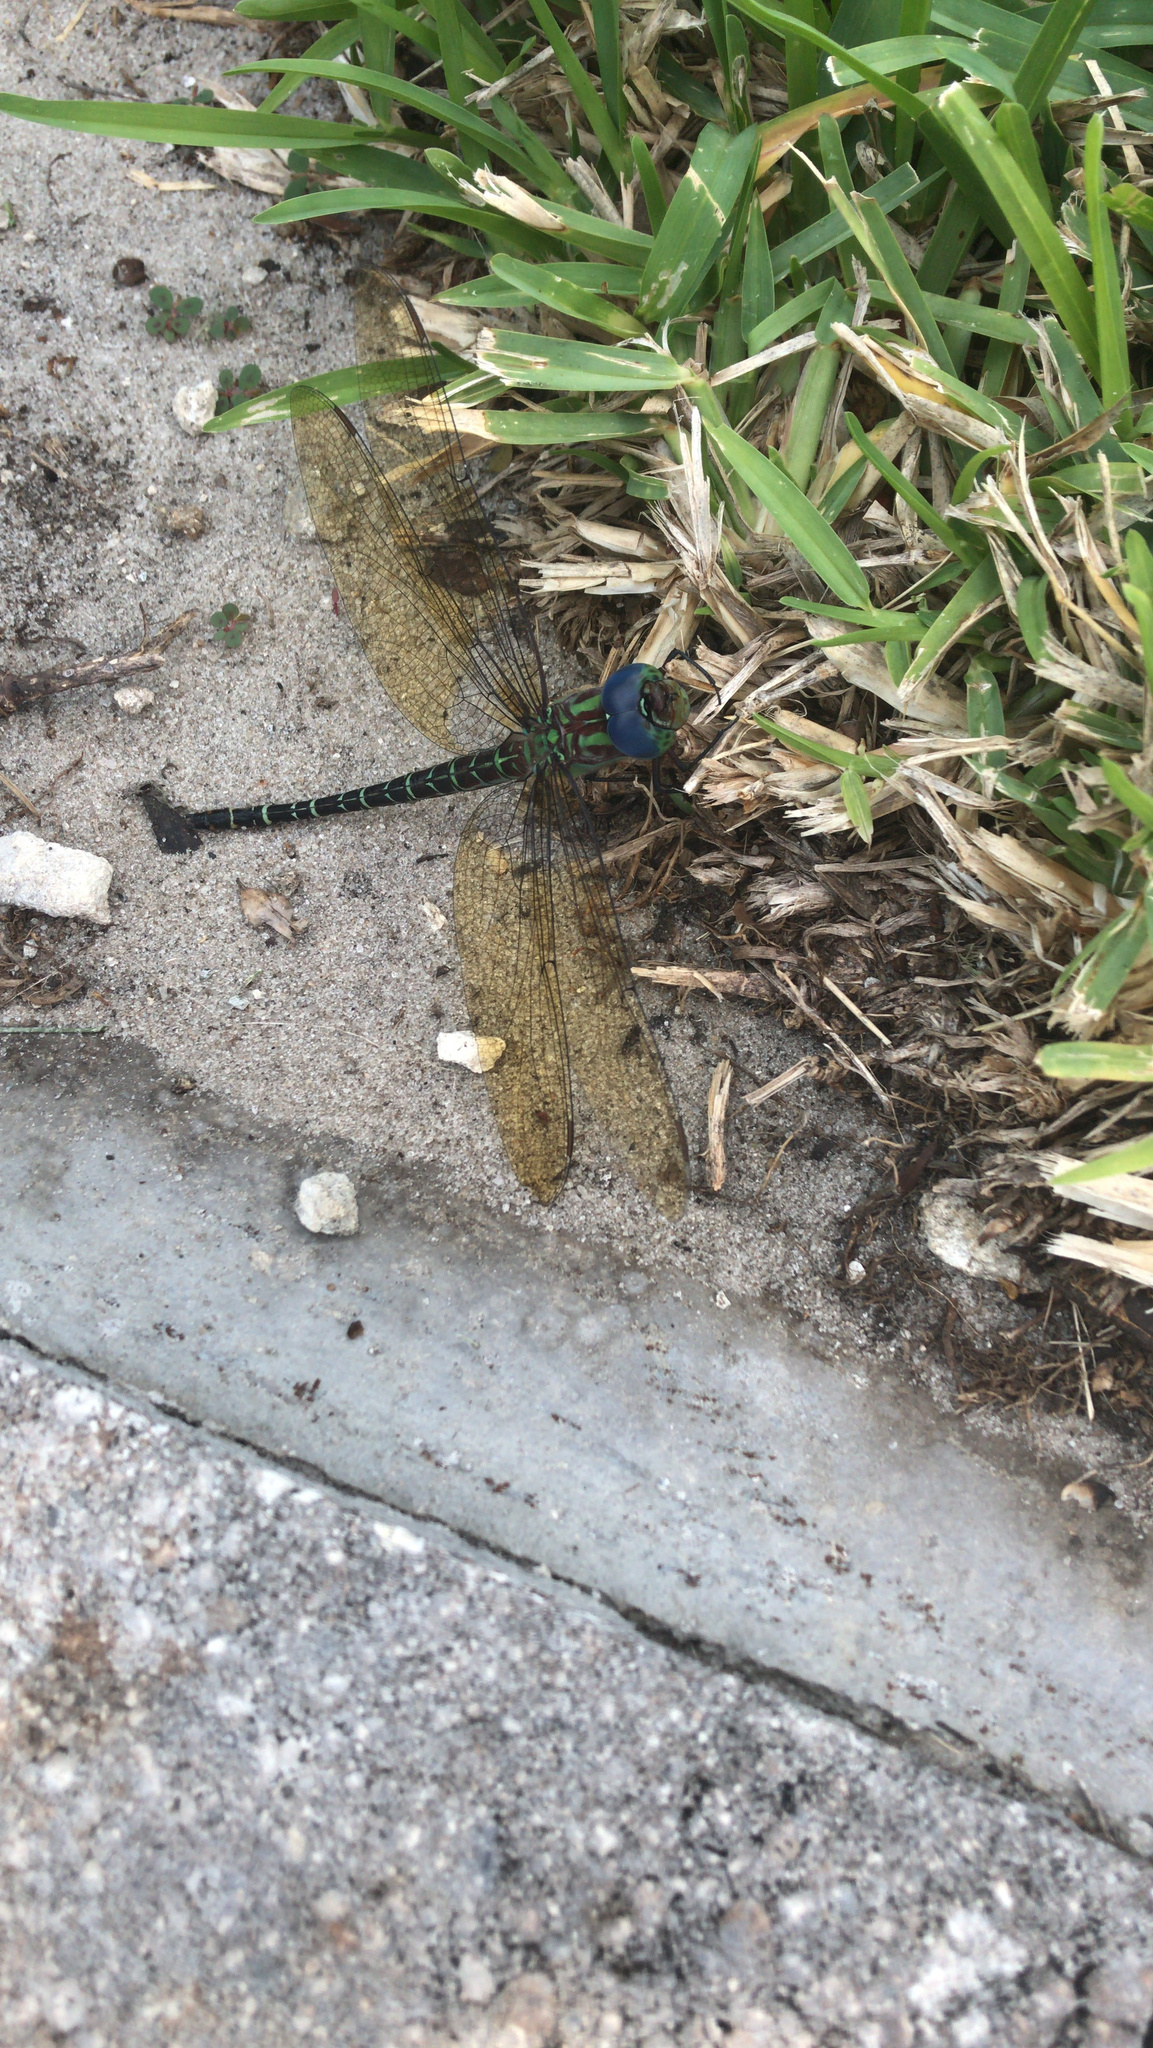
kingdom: Animalia
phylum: Arthropoda
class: Insecta
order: Odonata
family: Aeshnidae
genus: Coryphaeschna
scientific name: Coryphaeschna ingens
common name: Regal darner
